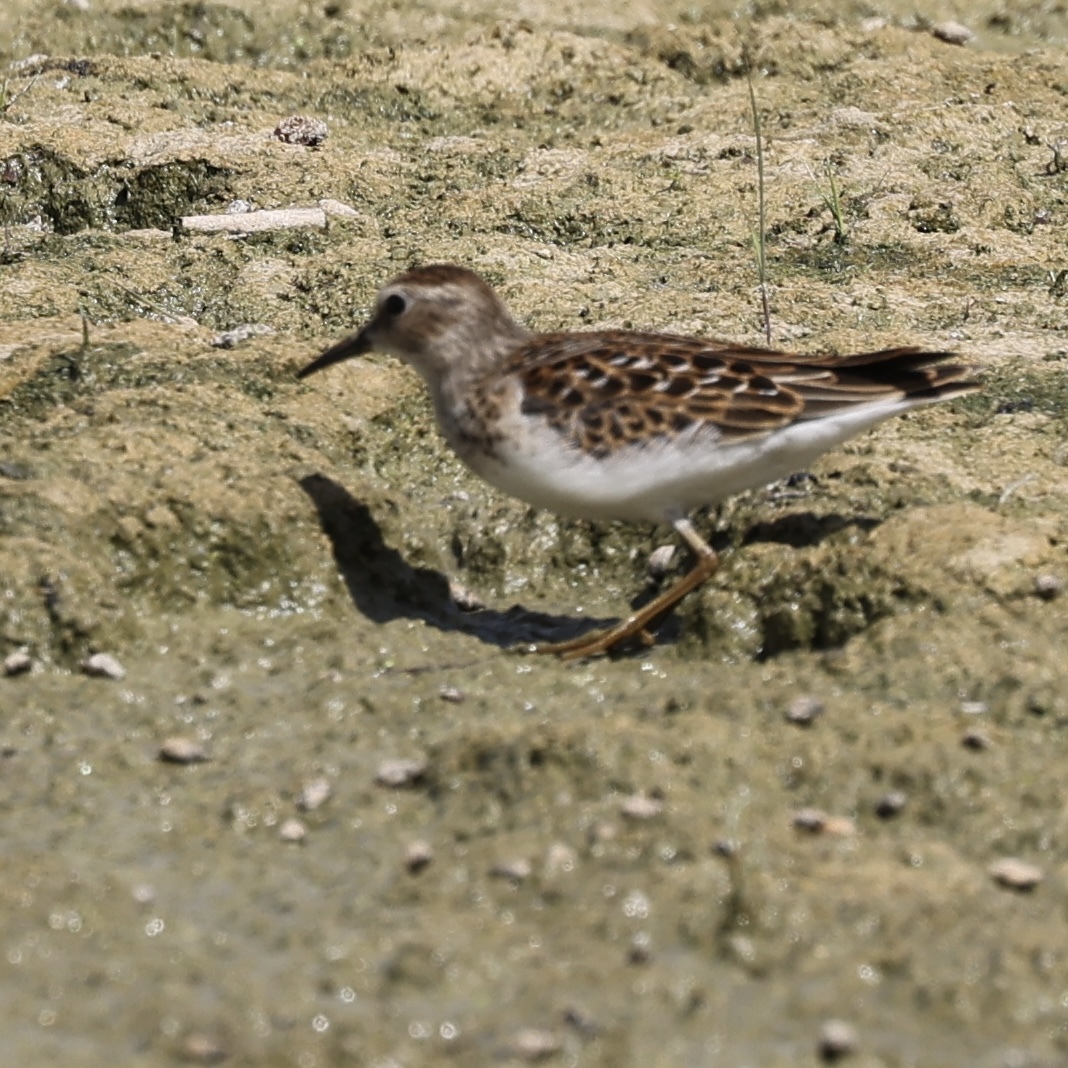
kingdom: Animalia
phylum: Chordata
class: Aves
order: Charadriiformes
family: Scolopacidae
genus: Calidris
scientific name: Calidris minutilla
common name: Least sandpiper
